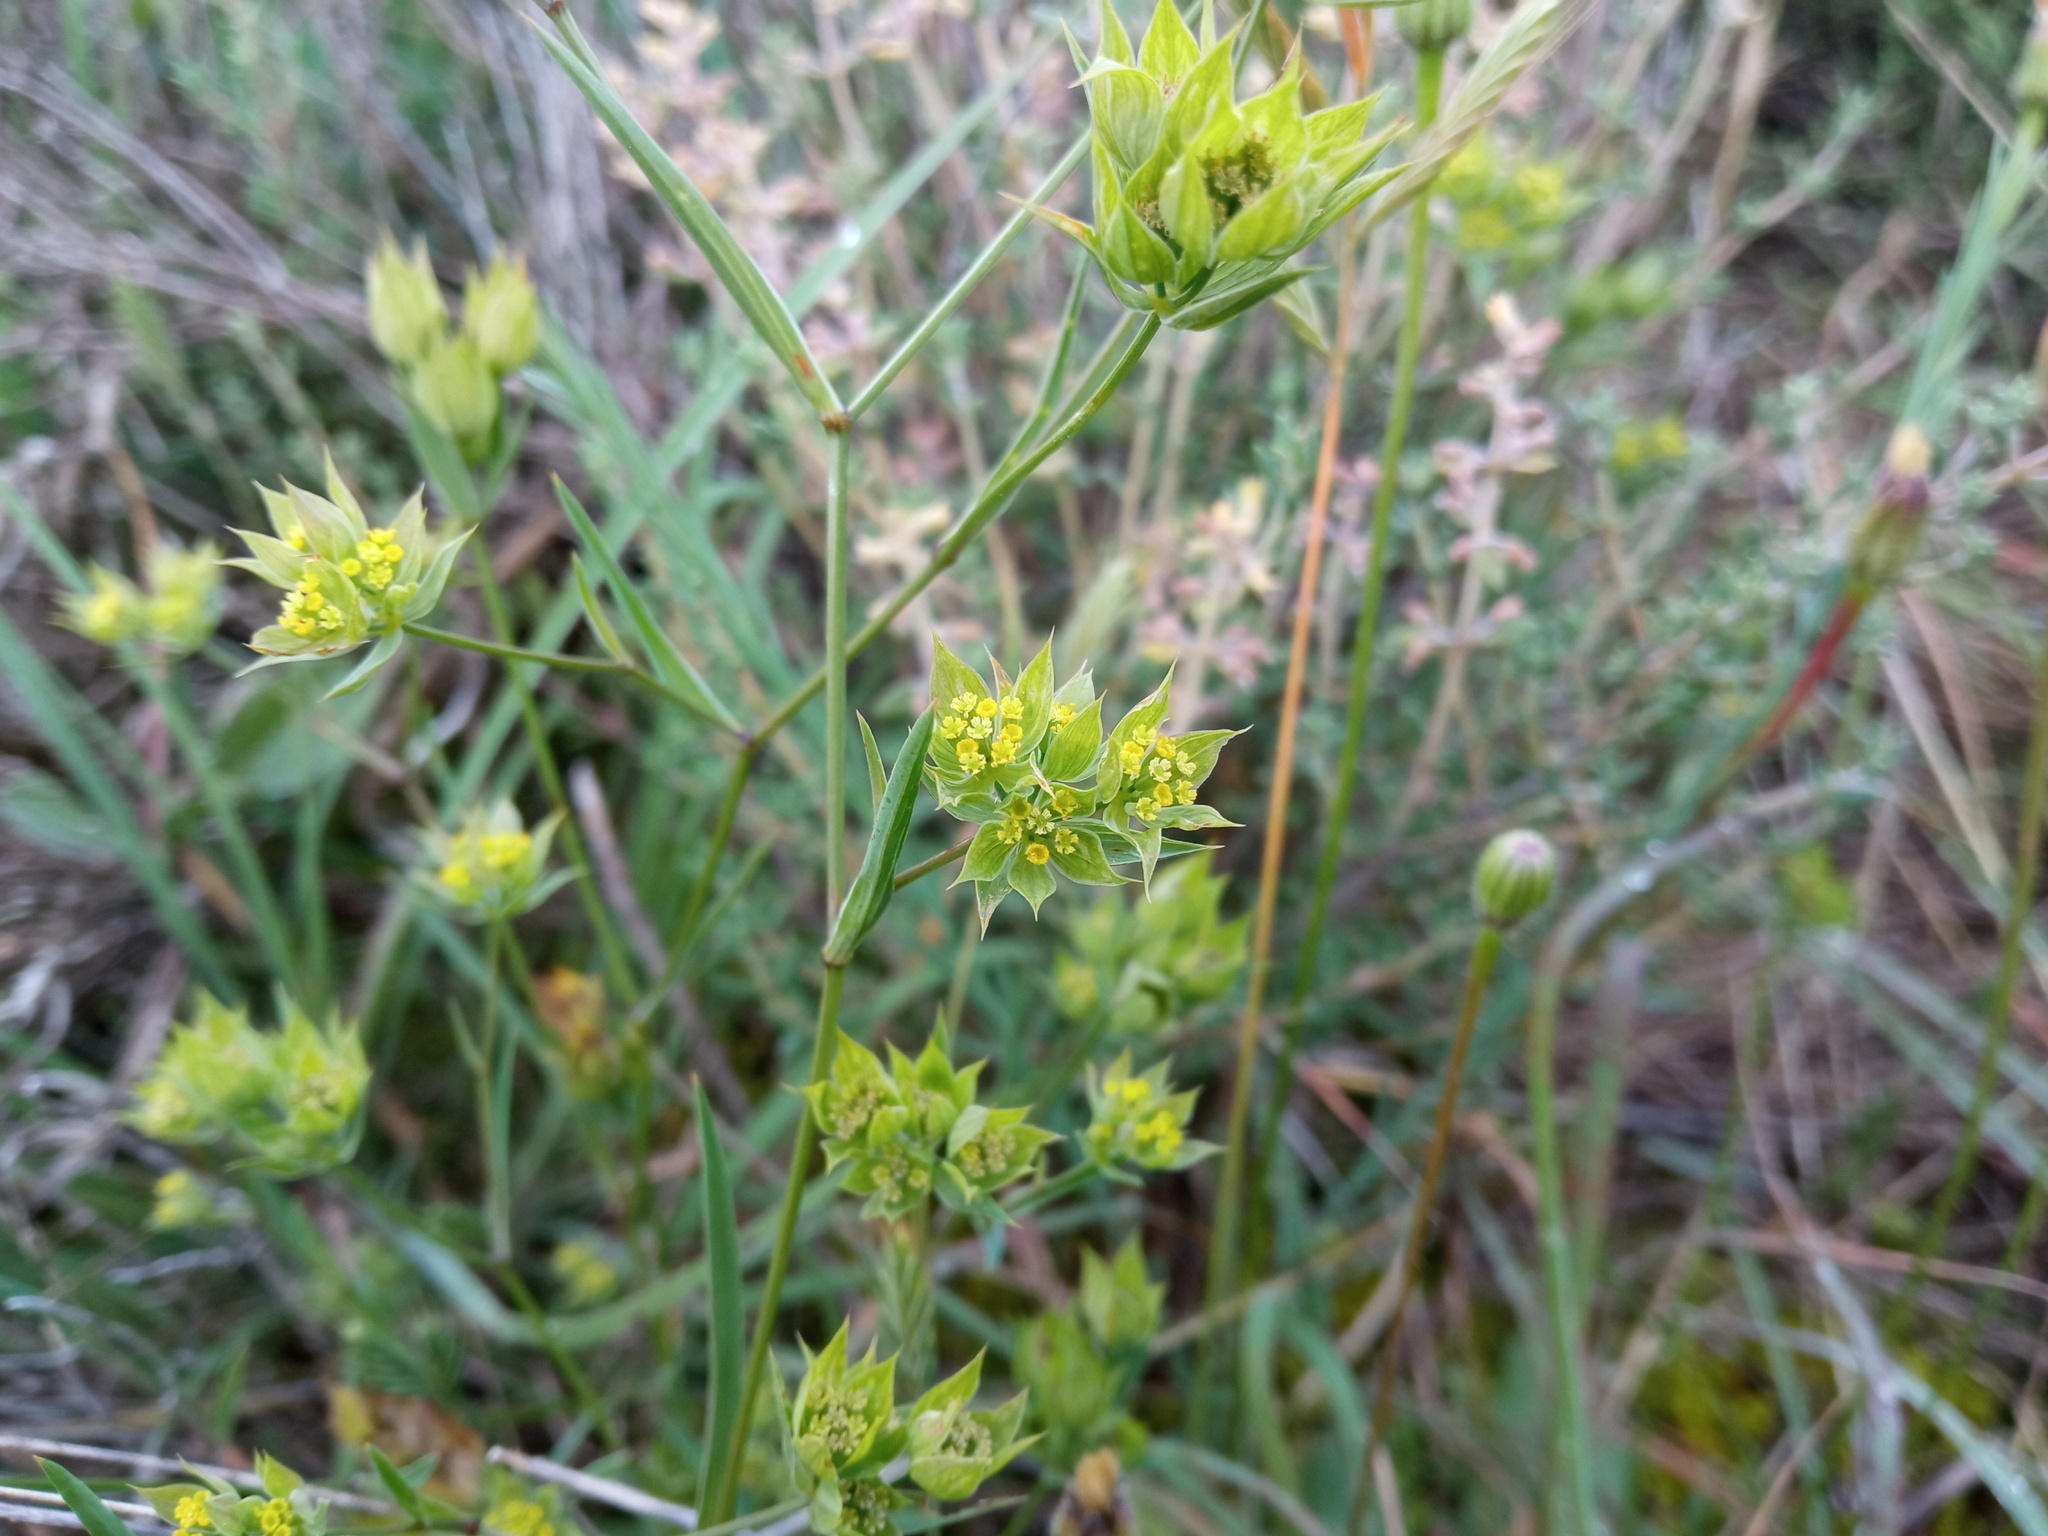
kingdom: Plantae
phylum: Tracheophyta
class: Magnoliopsida
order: Apiales
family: Apiaceae
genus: Bupleurum
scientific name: Bupleurum baldense
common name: Small hare's-ear
